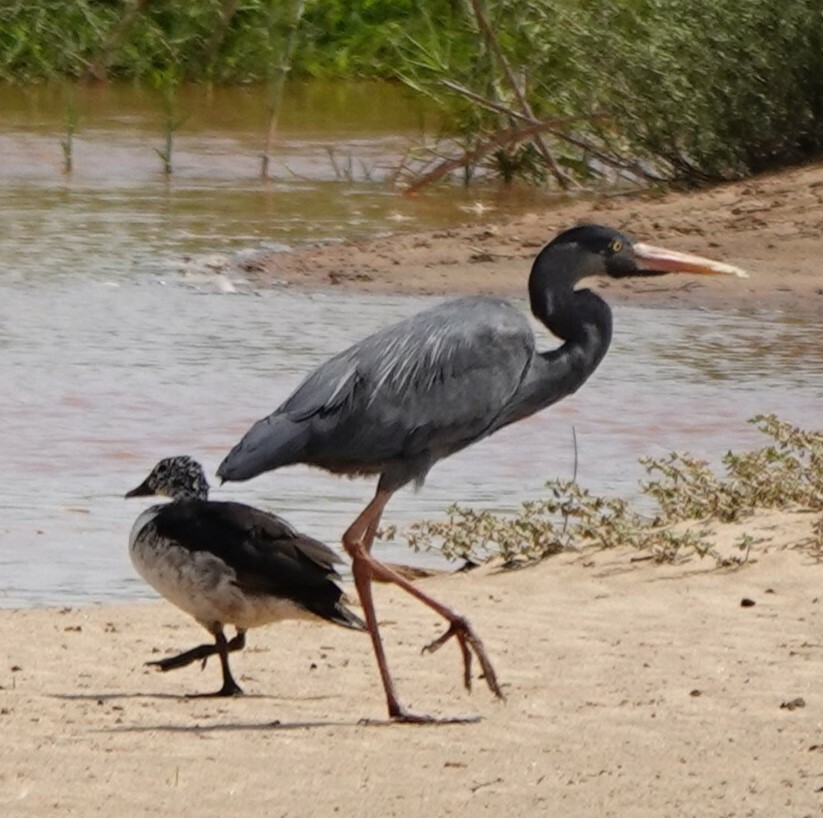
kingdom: Animalia
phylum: Chordata
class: Aves
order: Pelecaniformes
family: Ardeidae
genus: Ardea
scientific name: Ardea humbloti
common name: Humblot's heron
